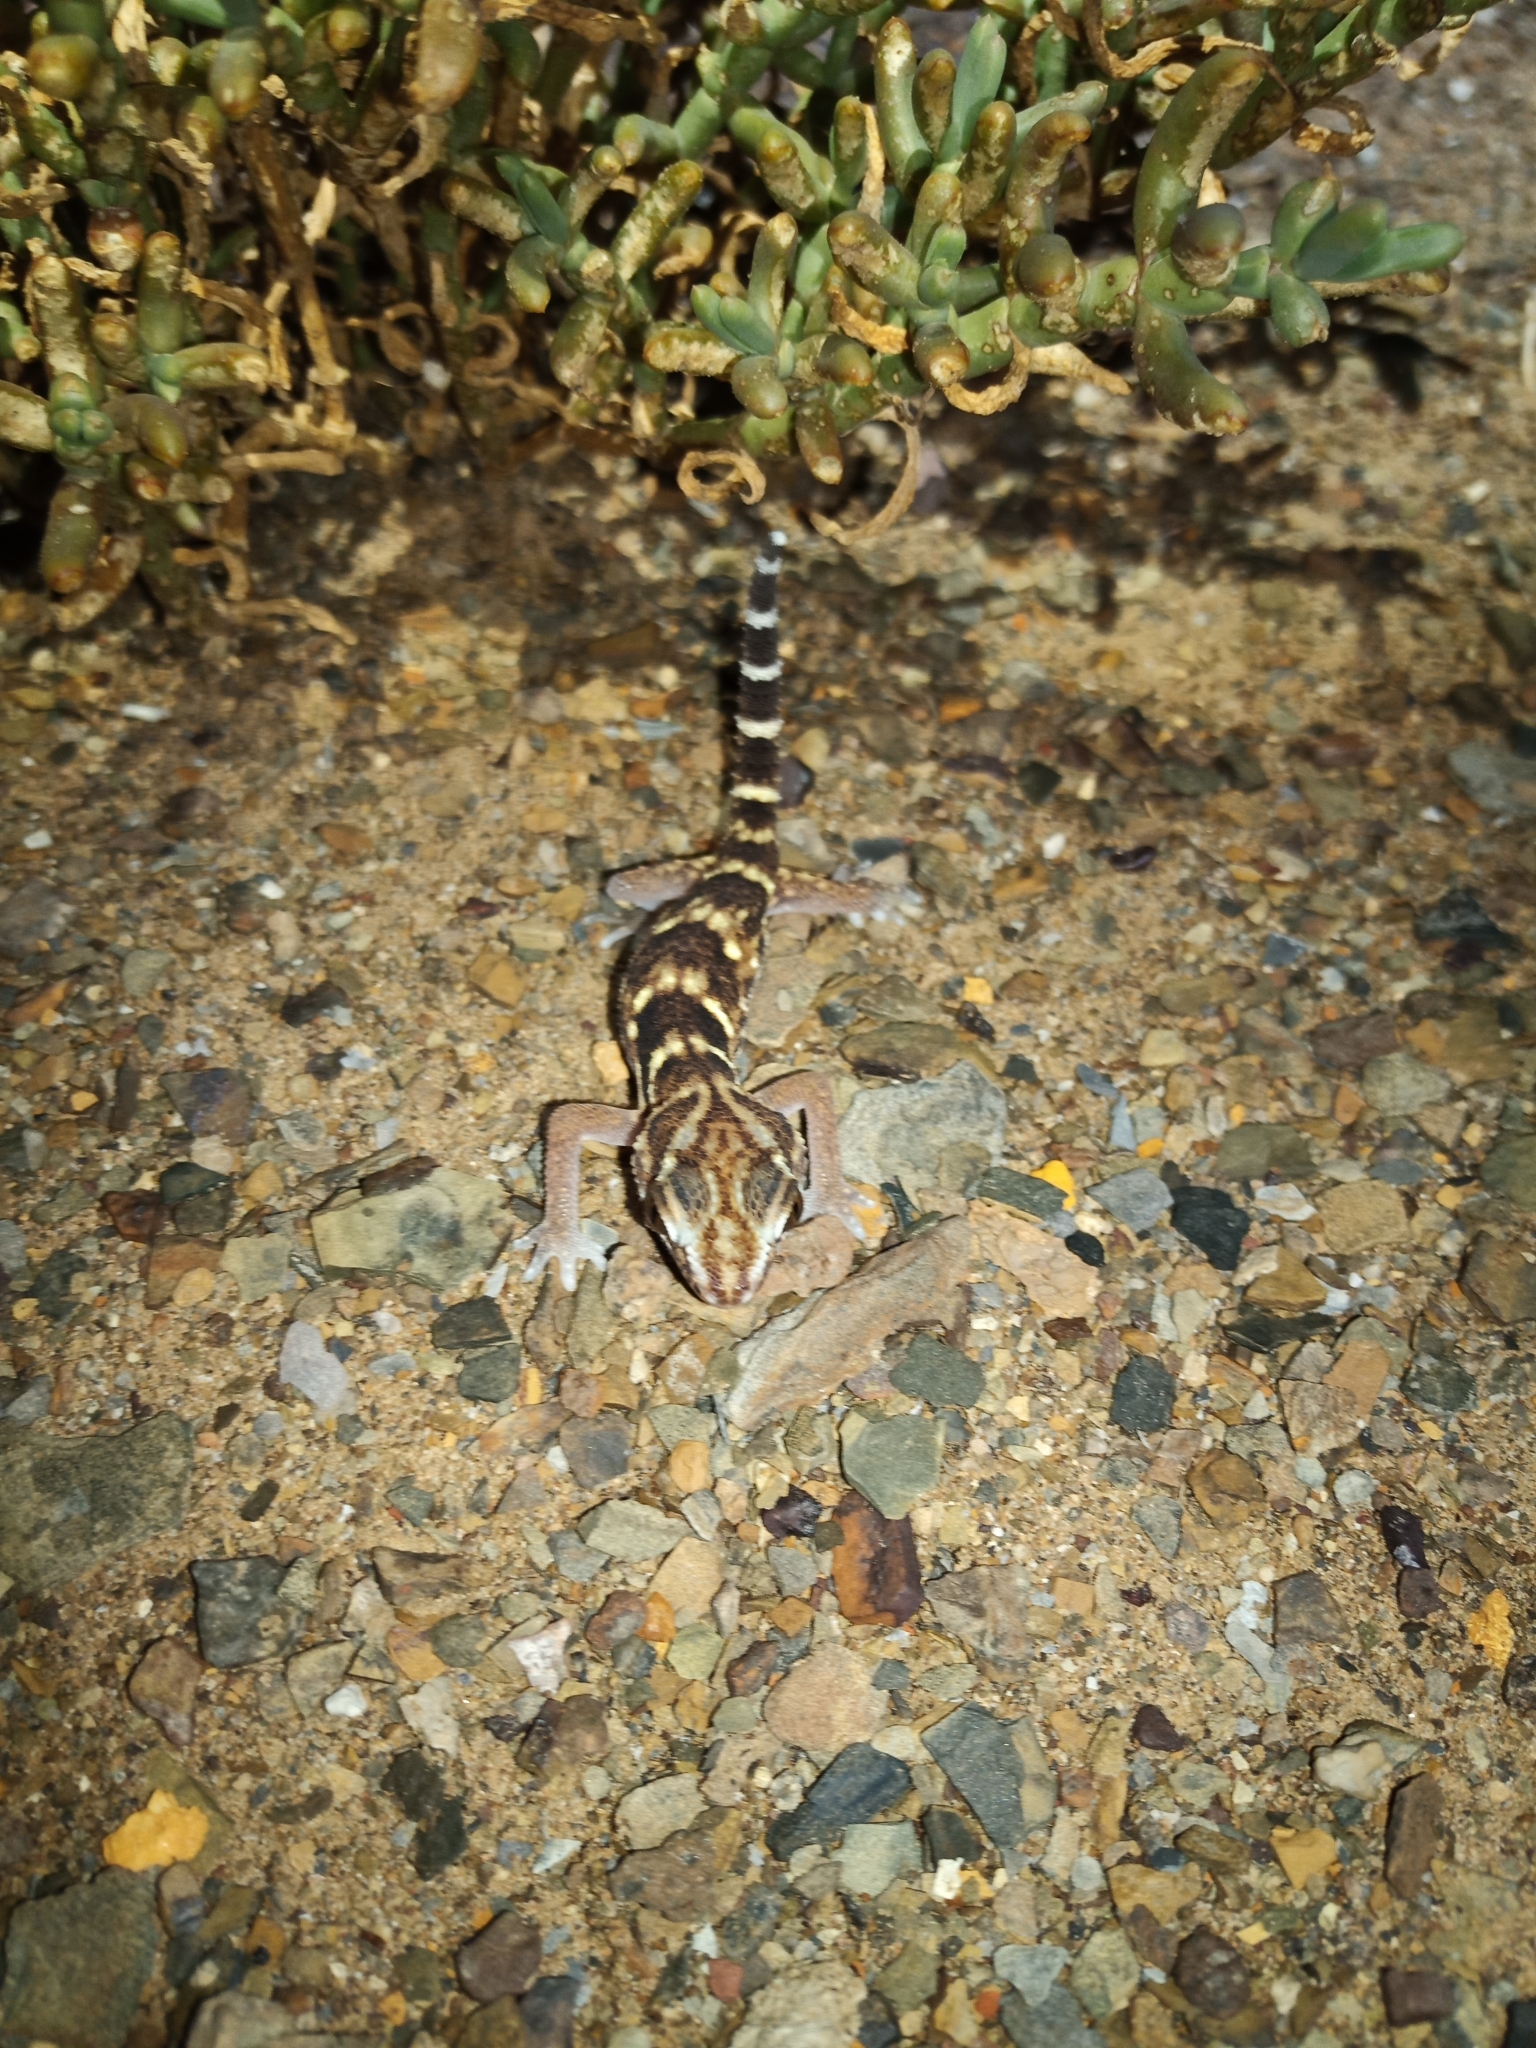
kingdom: Animalia
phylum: Chordata
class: Squamata
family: Gekkonidae
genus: Chondrodactylus
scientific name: Chondrodactylus angulifer
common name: Common giant ground gecko
